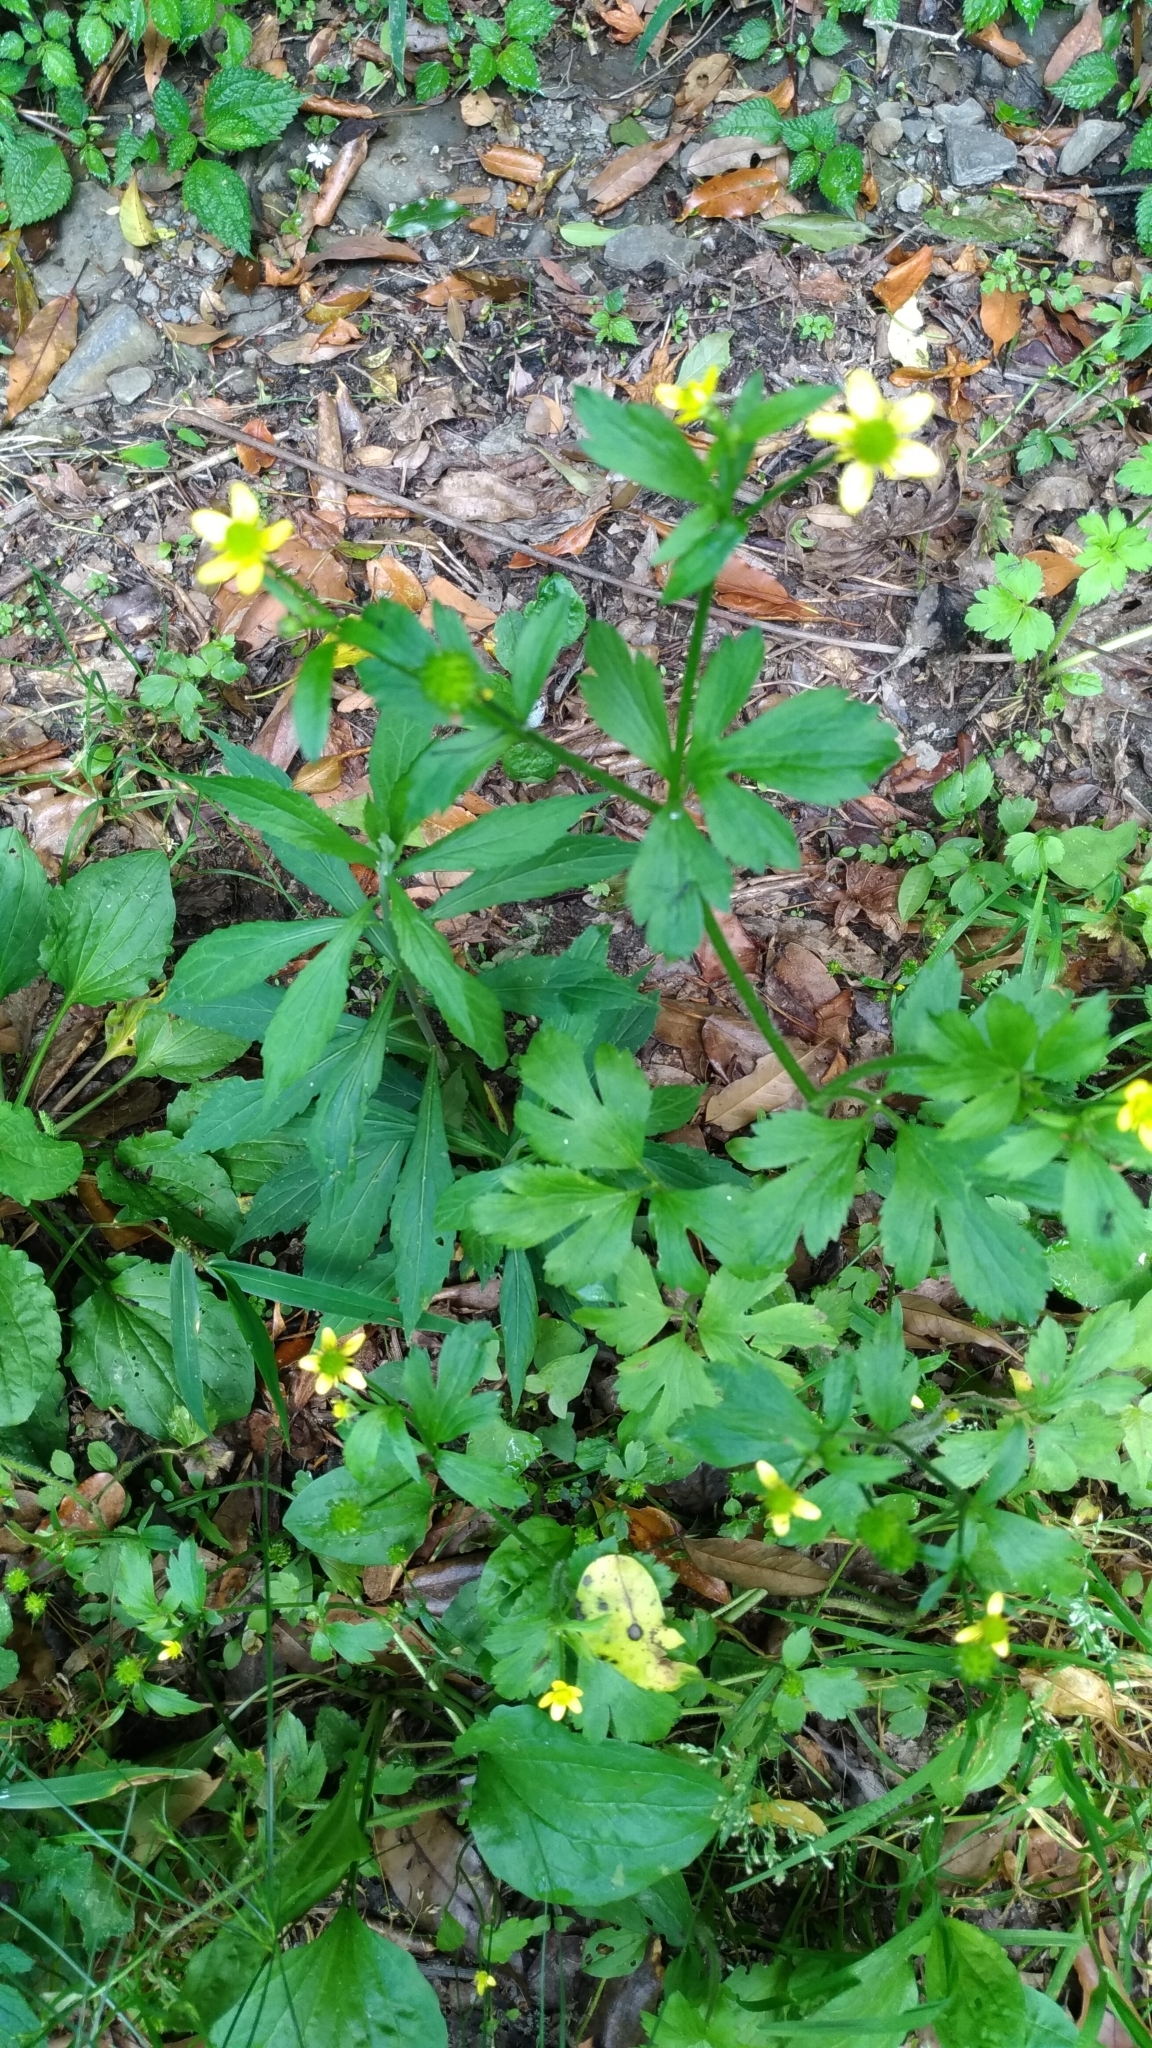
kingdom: Plantae
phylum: Tracheophyta
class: Magnoliopsida
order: Ranunculales
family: Ranunculaceae
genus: Ranunculus
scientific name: Ranunculus cantoniensis
